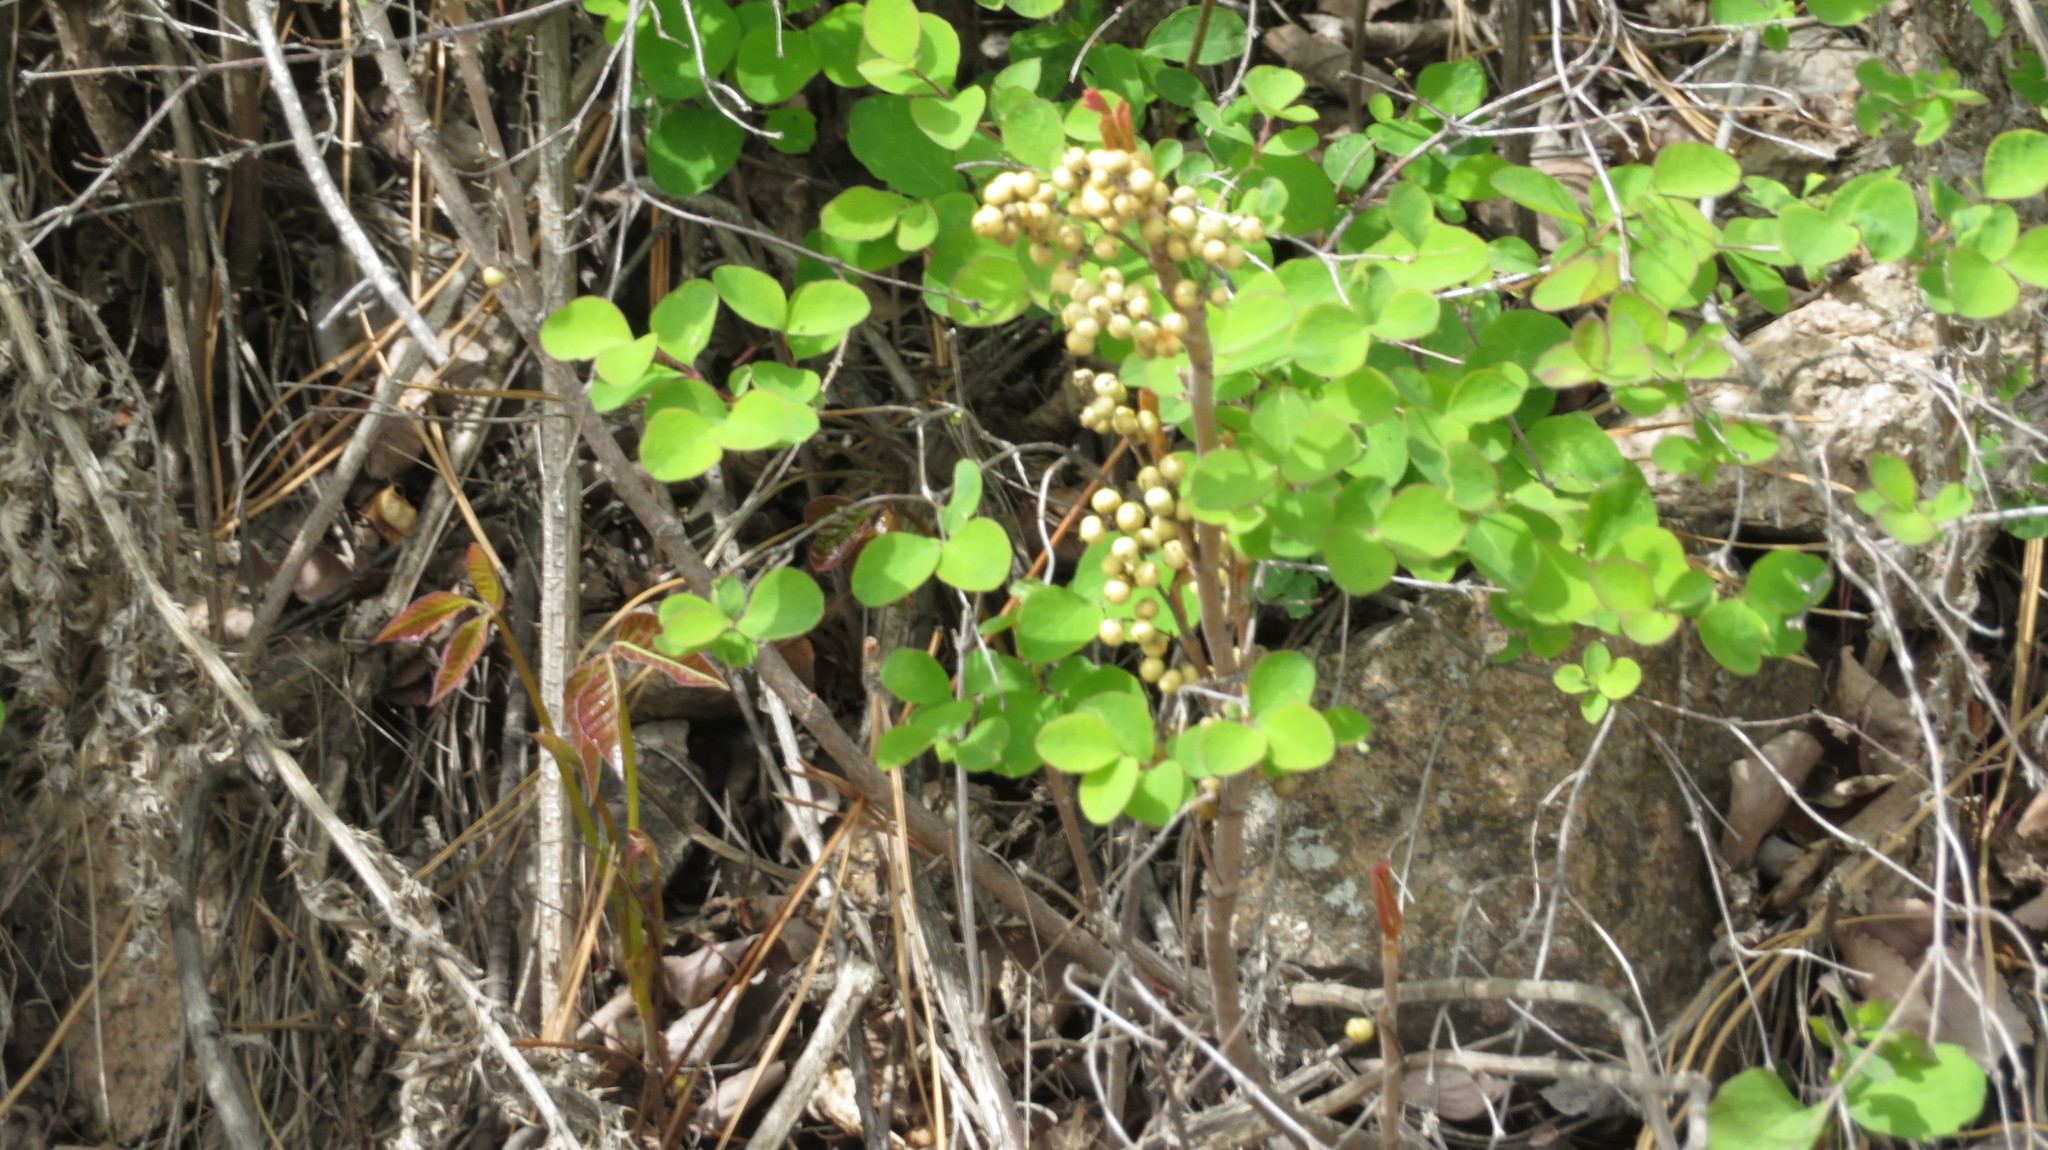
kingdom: Plantae
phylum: Tracheophyta
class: Magnoliopsida
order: Sapindales
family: Anacardiaceae
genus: Toxicodendron
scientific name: Toxicodendron rydbergii
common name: Rydberg's poison-ivy
